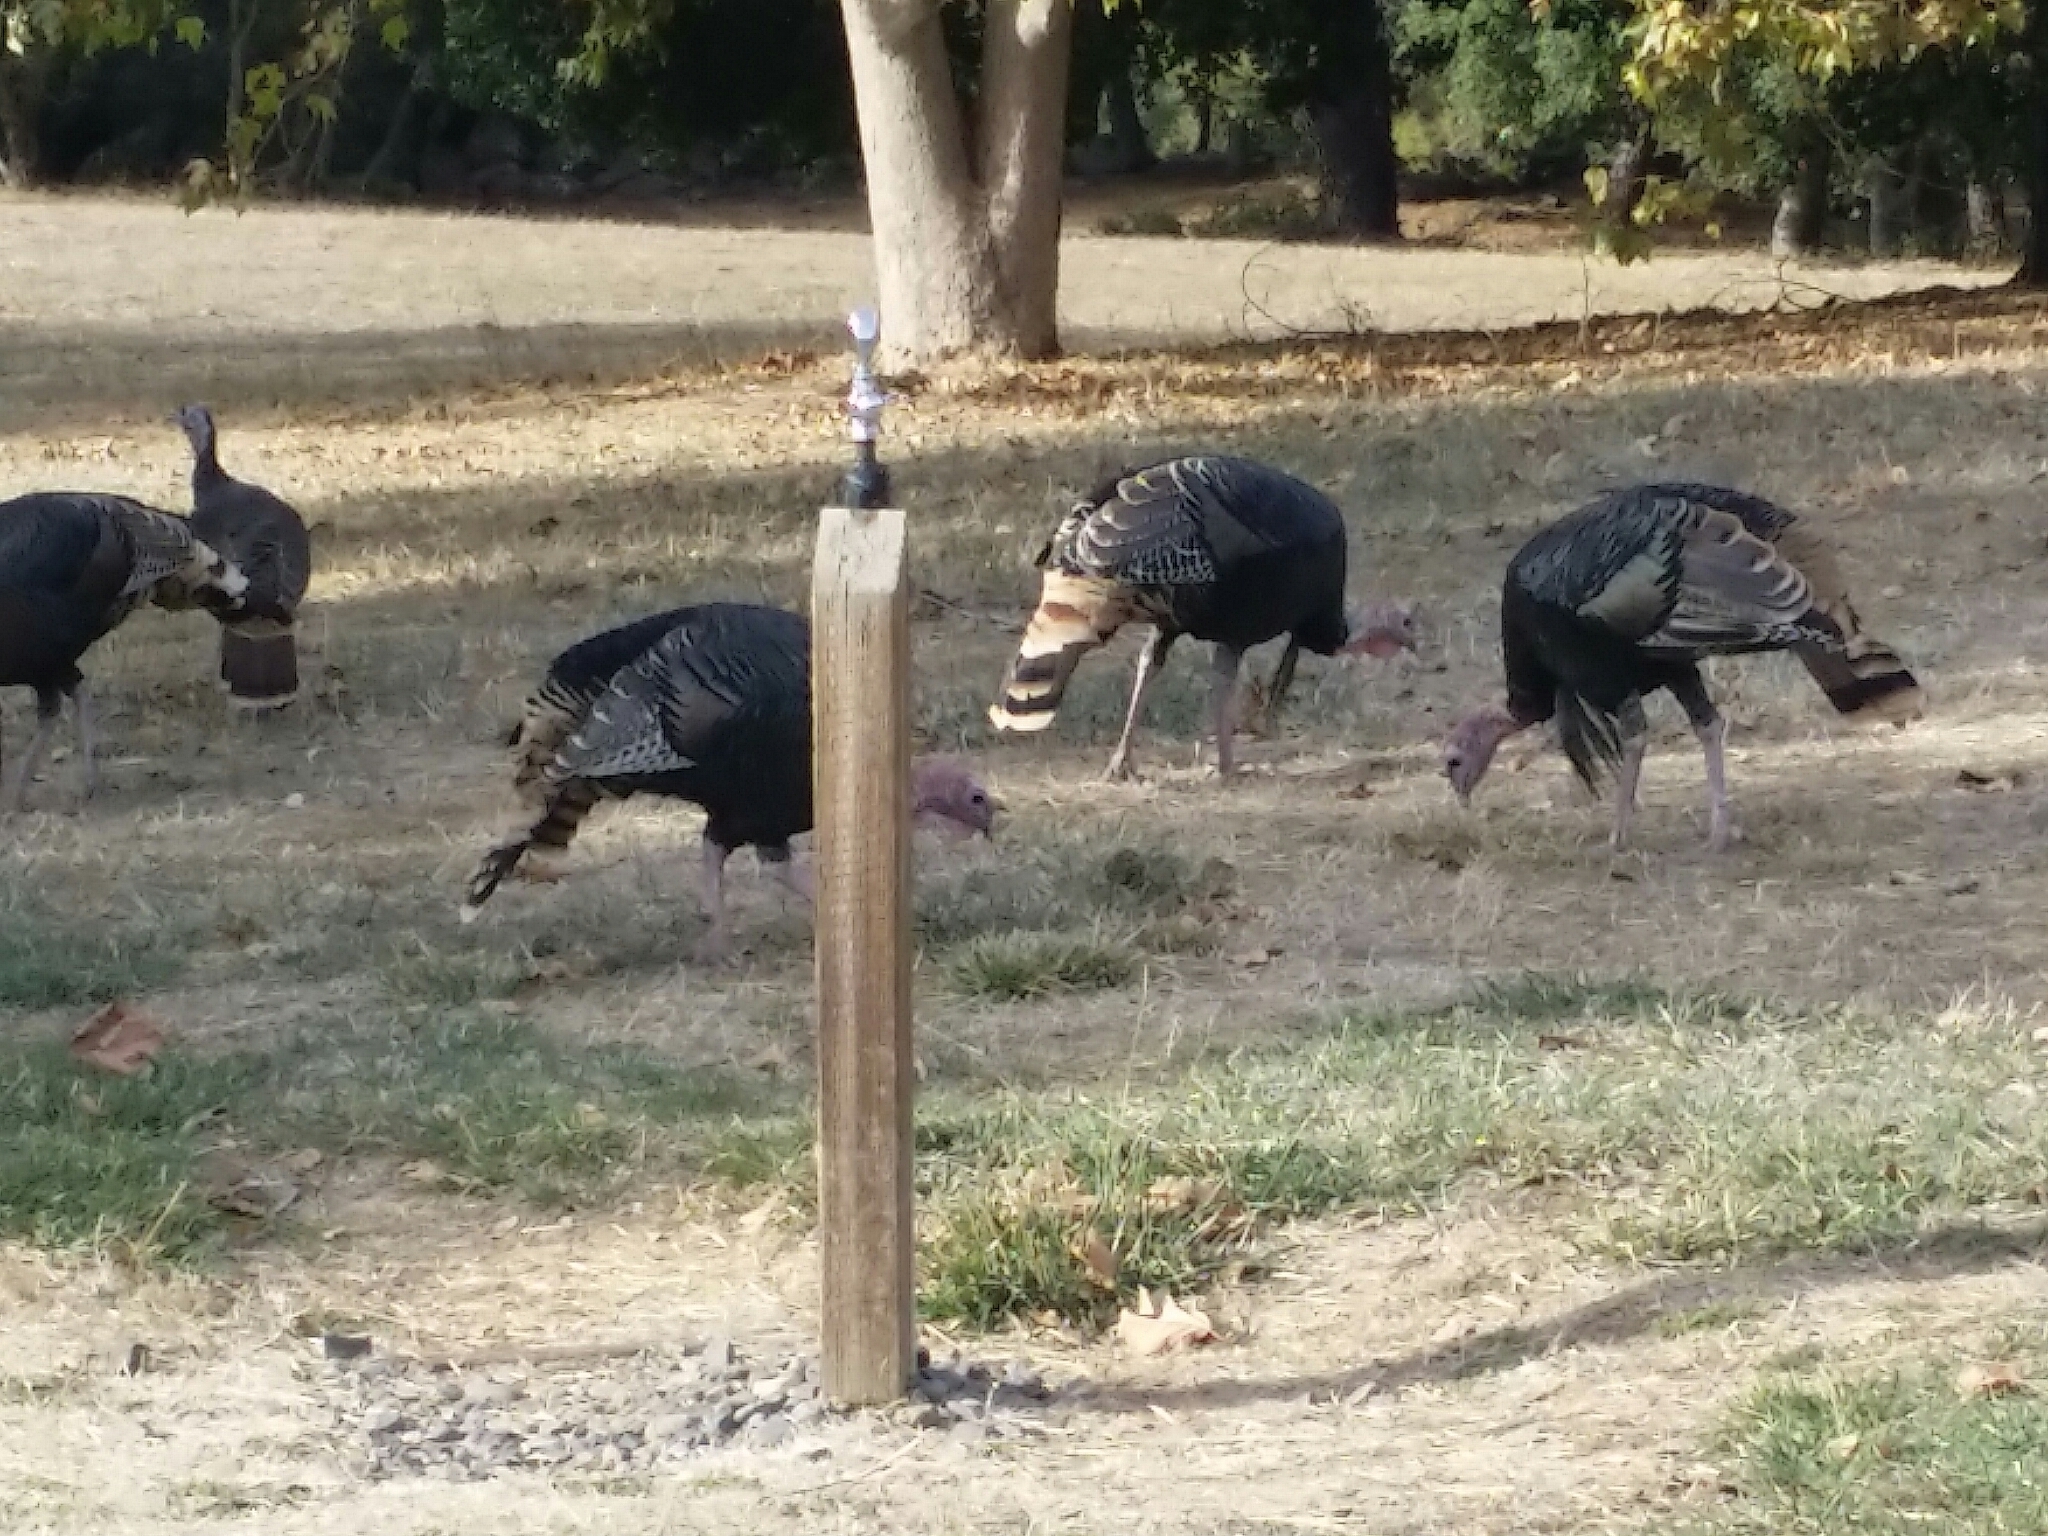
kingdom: Animalia
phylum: Chordata
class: Aves
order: Galliformes
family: Phasianidae
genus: Meleagris
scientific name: Meleagris gallopavo
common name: Wild turkey
